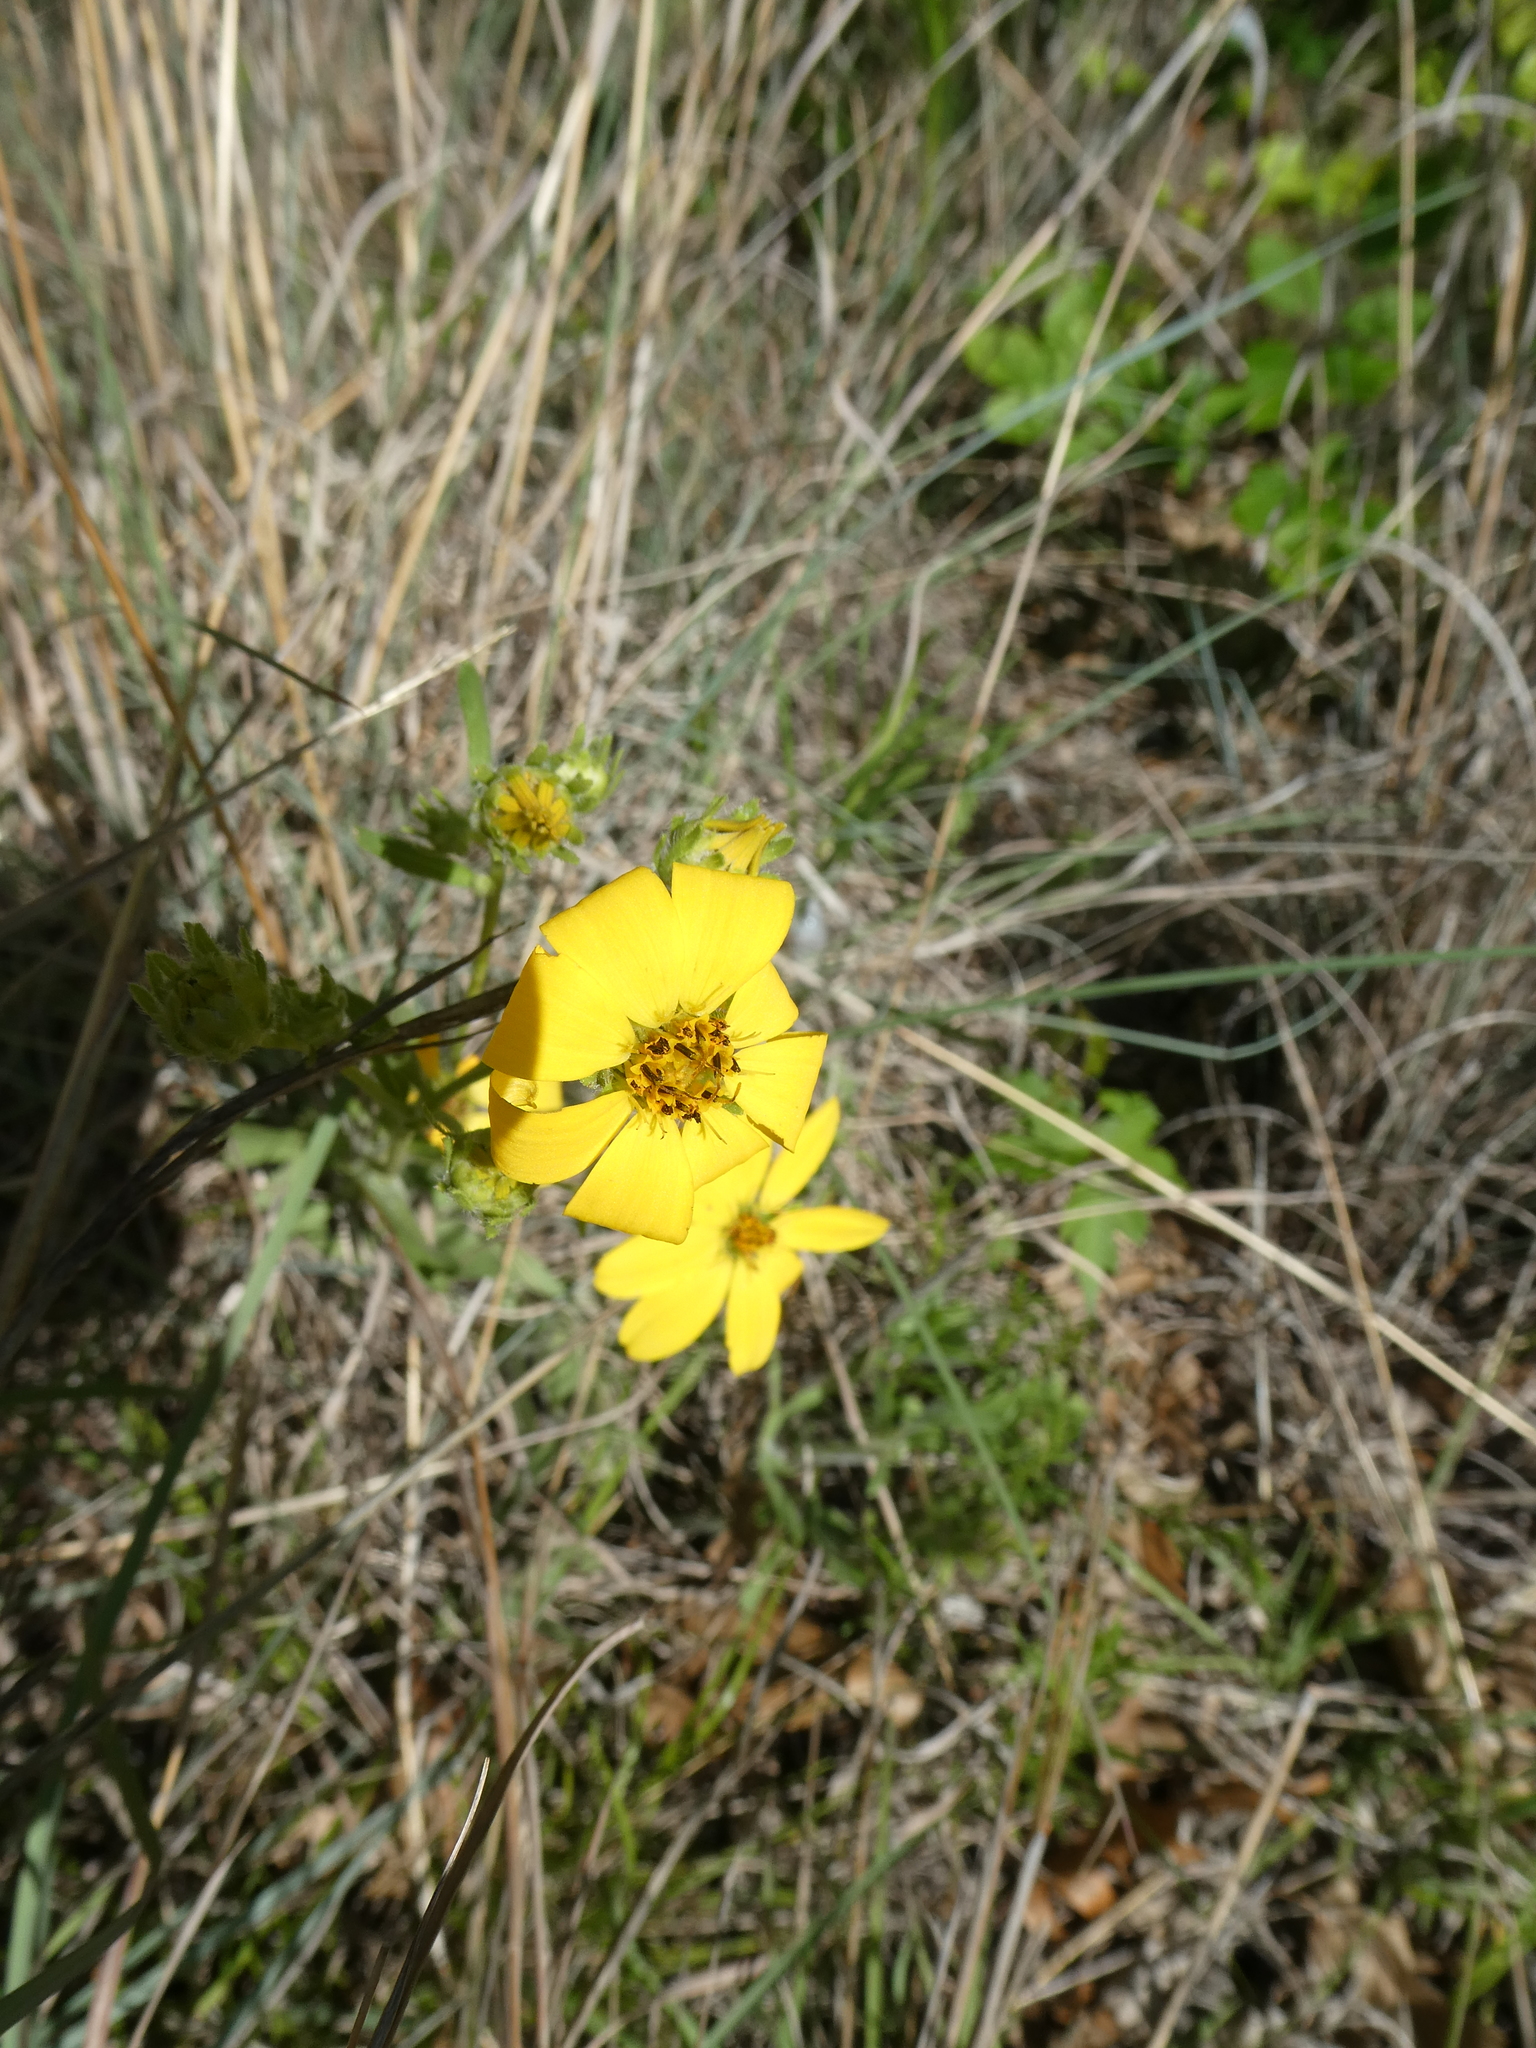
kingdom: Plantae
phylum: Tracheophyta
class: Magnoliopsida
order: Asterales
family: Asteraceae
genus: Engelmannia
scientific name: Engelmannia peristenia
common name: Engelmann's daisy
